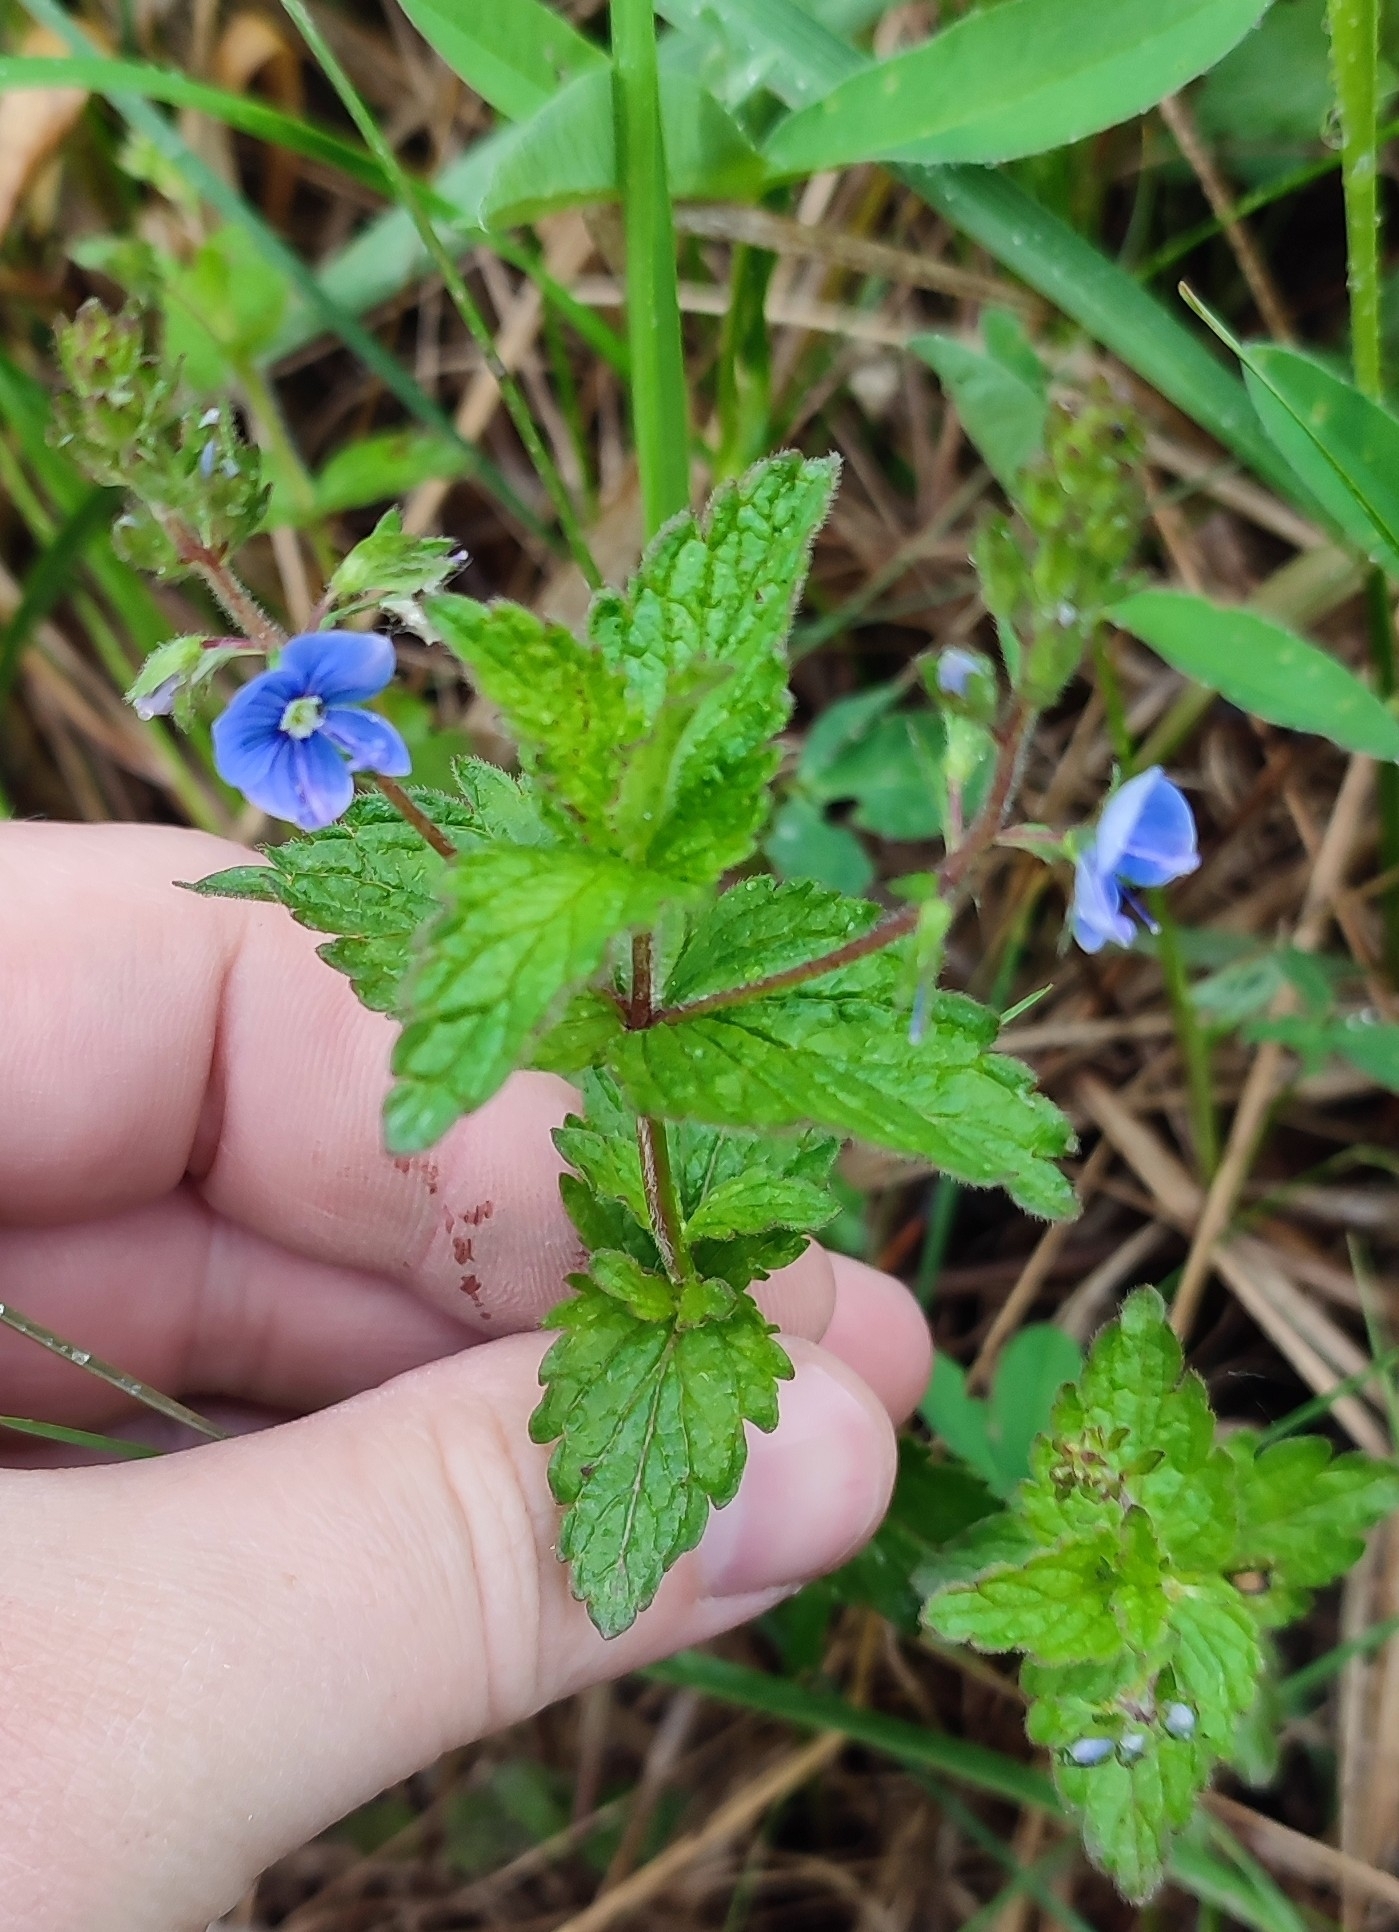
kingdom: Plantae
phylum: Tracheophyta
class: Magnoliopsida
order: Lamiales
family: Plantaginaceae
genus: Veronica
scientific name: Veronica chamaedrys
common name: Germander speedwell
